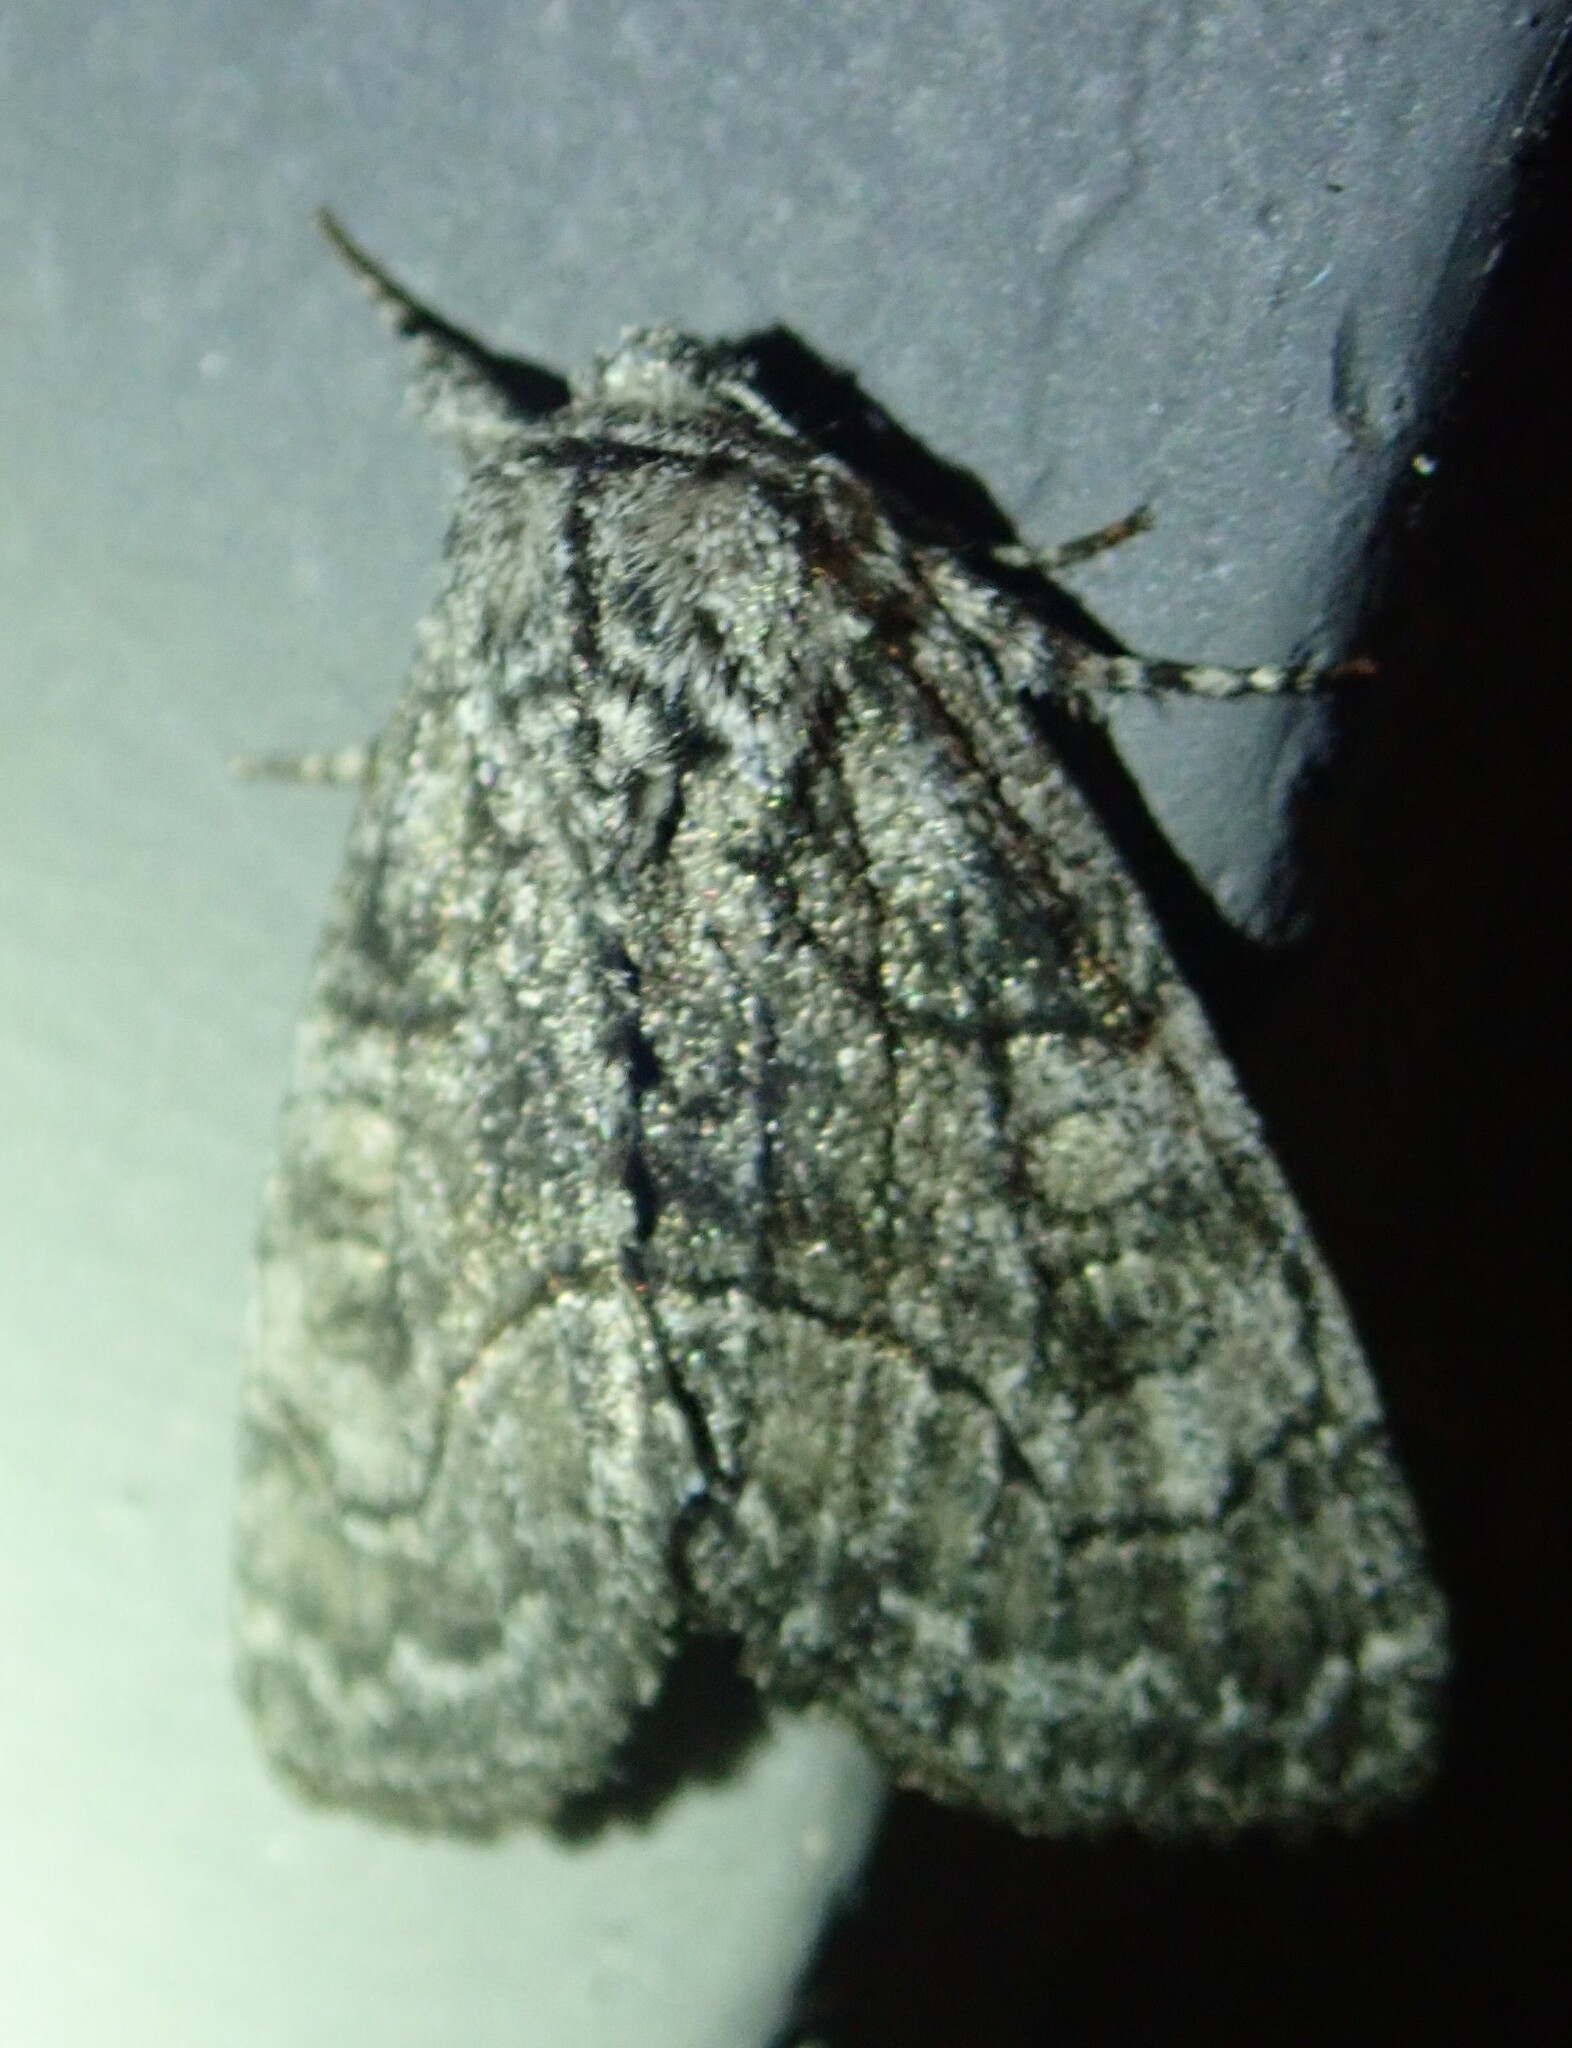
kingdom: Animalia
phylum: Arthropoda
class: Insecta
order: Lepidoptera
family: Noctuidae
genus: Raphia
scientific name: Raphia frater
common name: Brother
